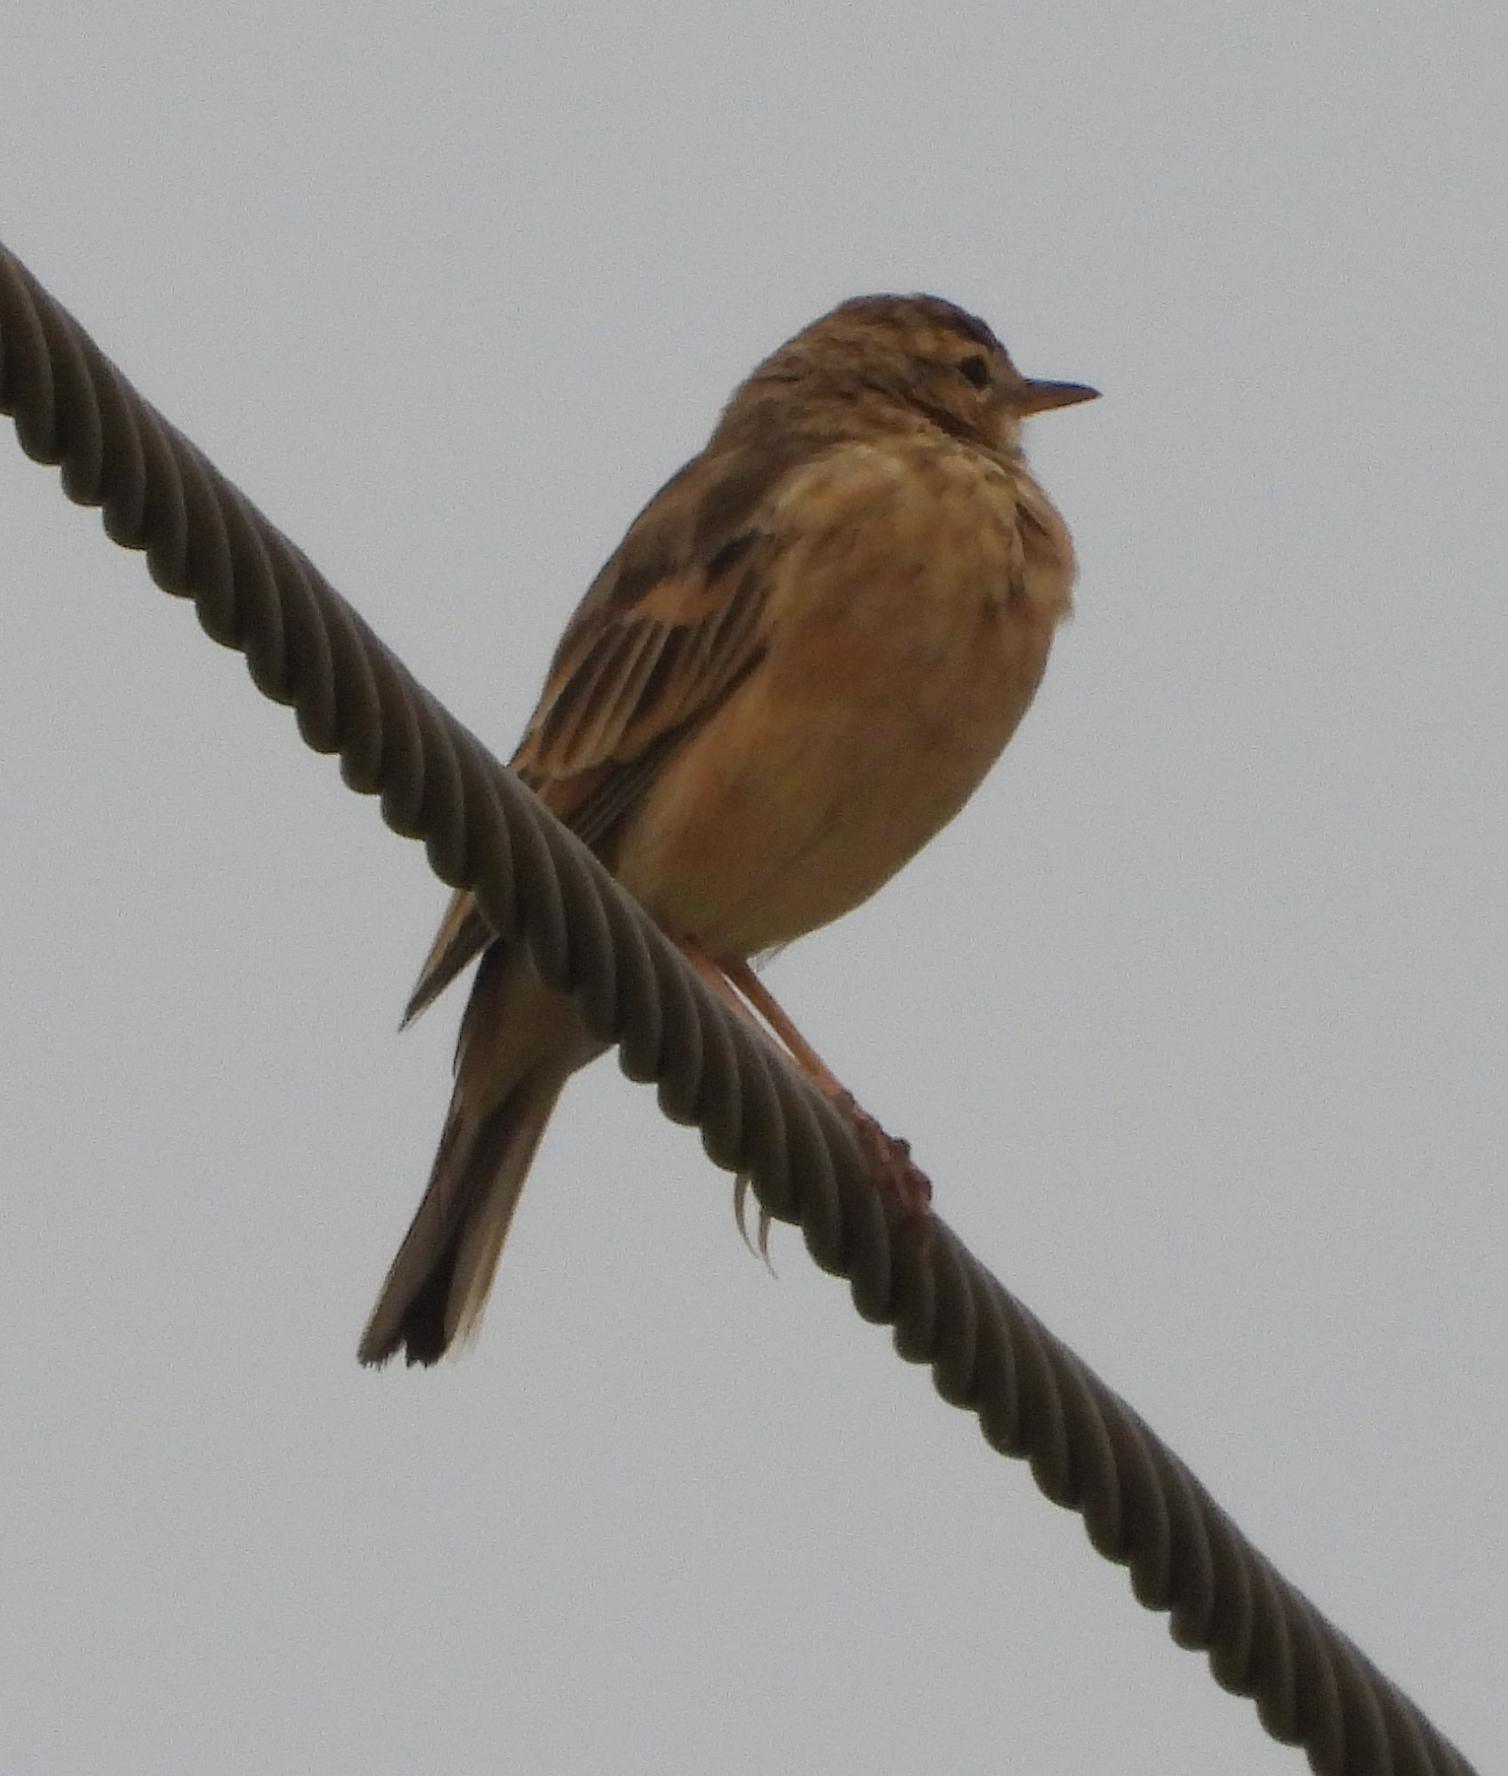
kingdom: Animalia
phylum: Chordata
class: Aves
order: Passeriformes
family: Motacillidae
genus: Anthus
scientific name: Anthus leucophrys
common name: Plain-backed pipit
